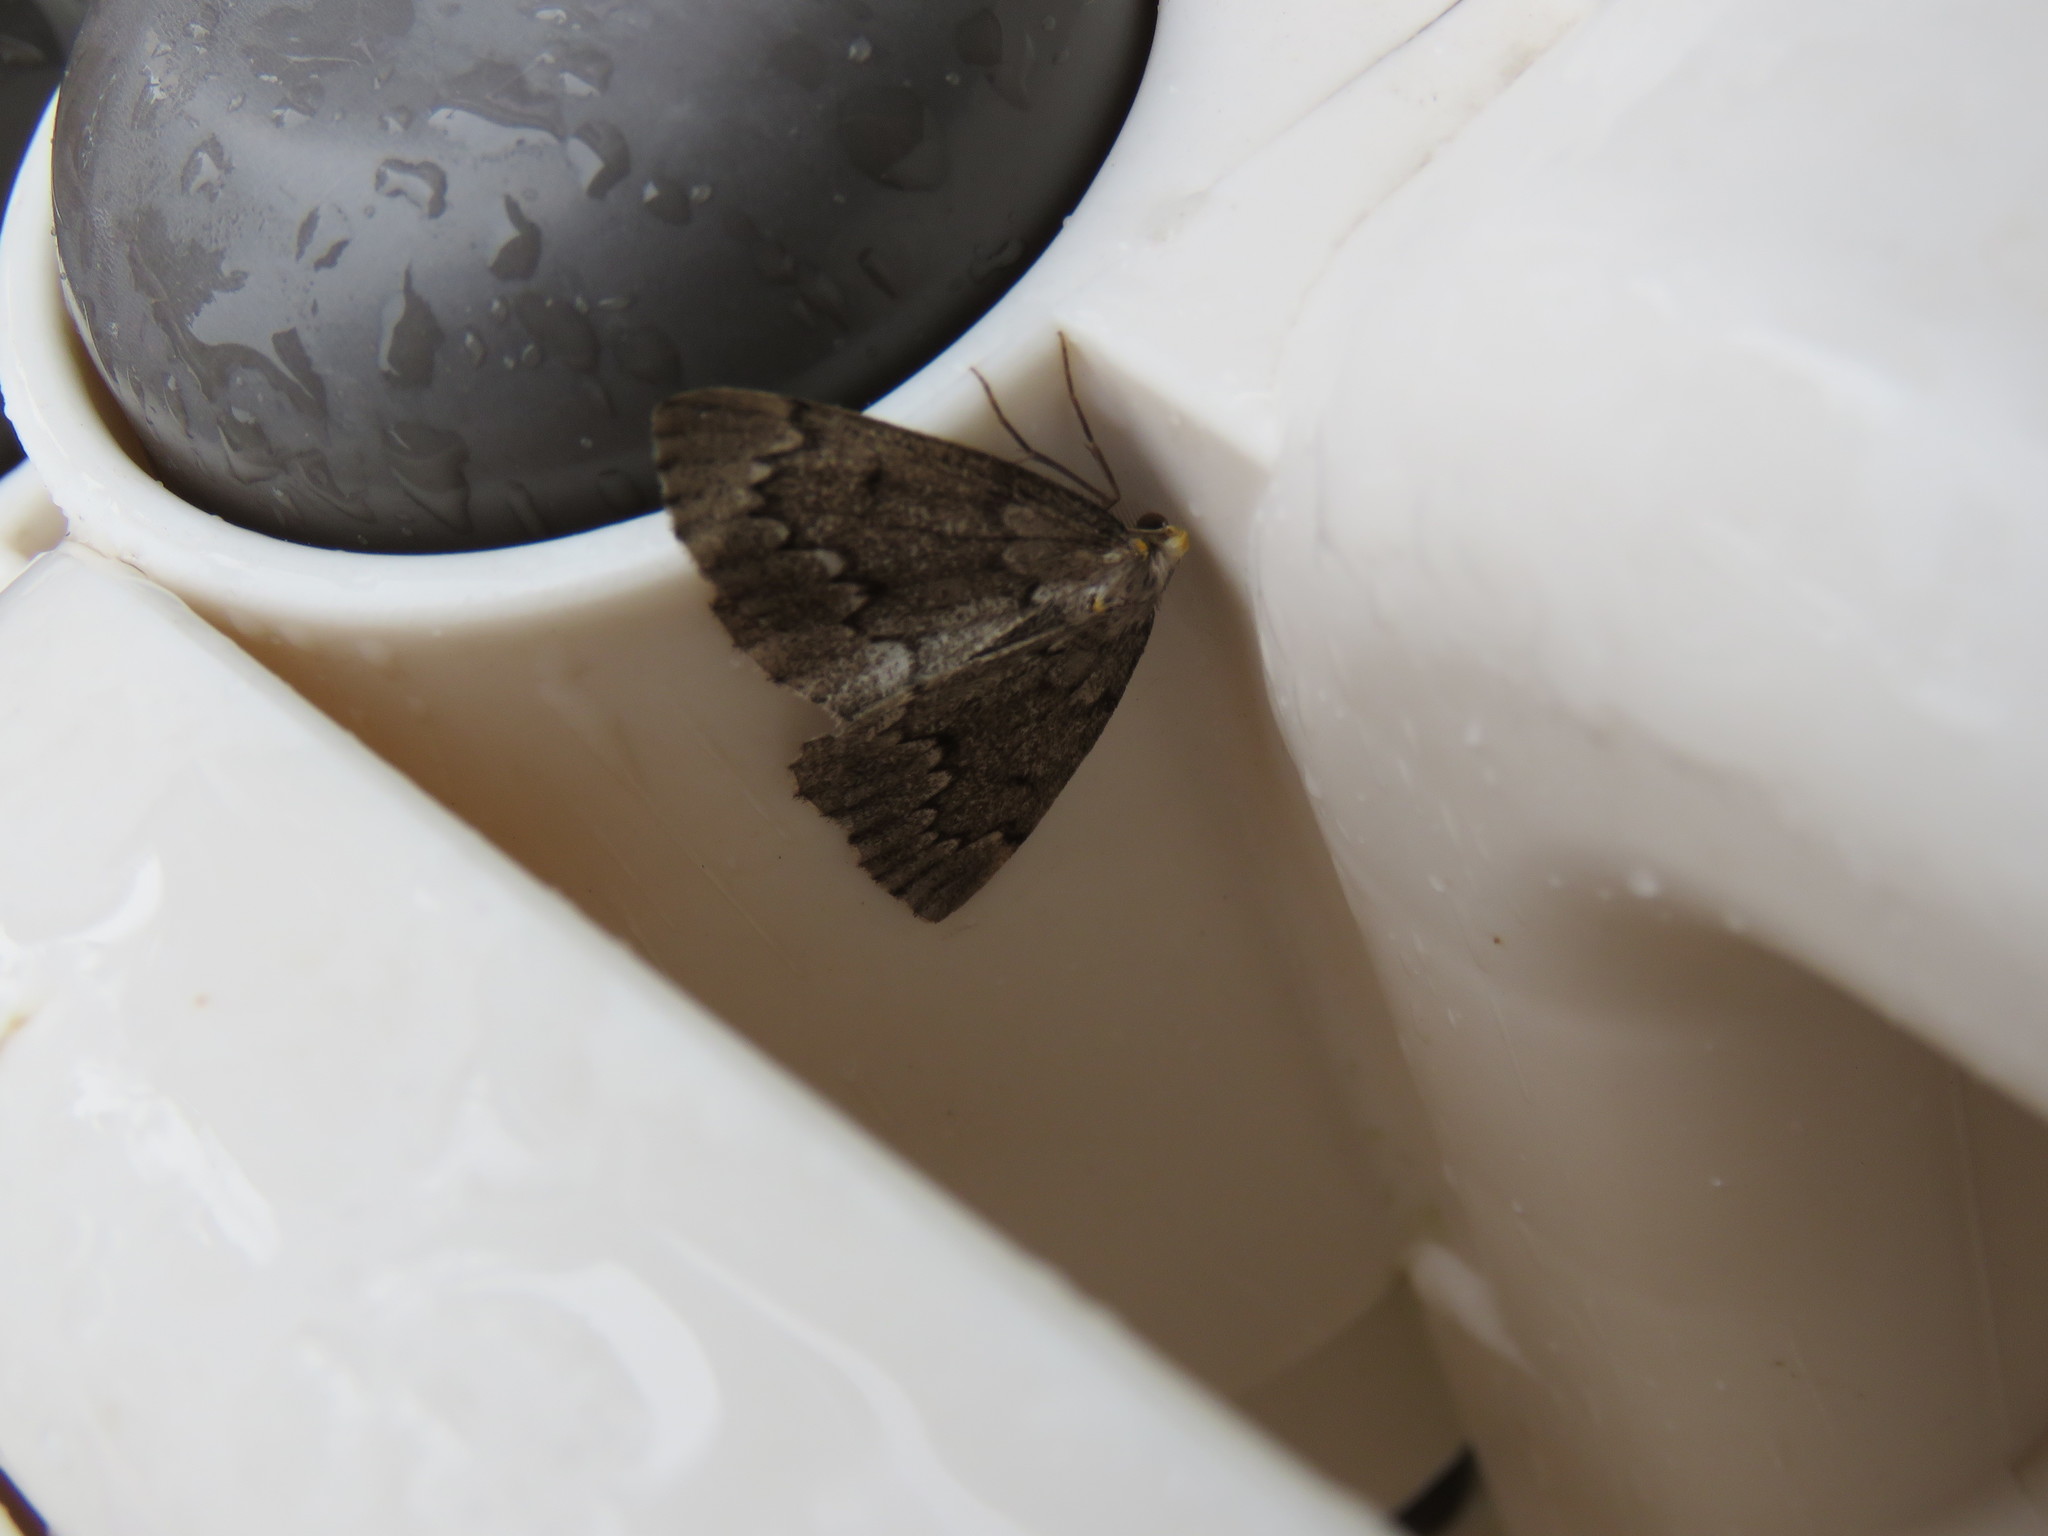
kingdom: Animalia
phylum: Arthropoda
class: Insecta
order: Lepidoptera
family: Geometridae
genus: Nepytia
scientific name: Nepytia canosaria
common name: False hemlock looper
